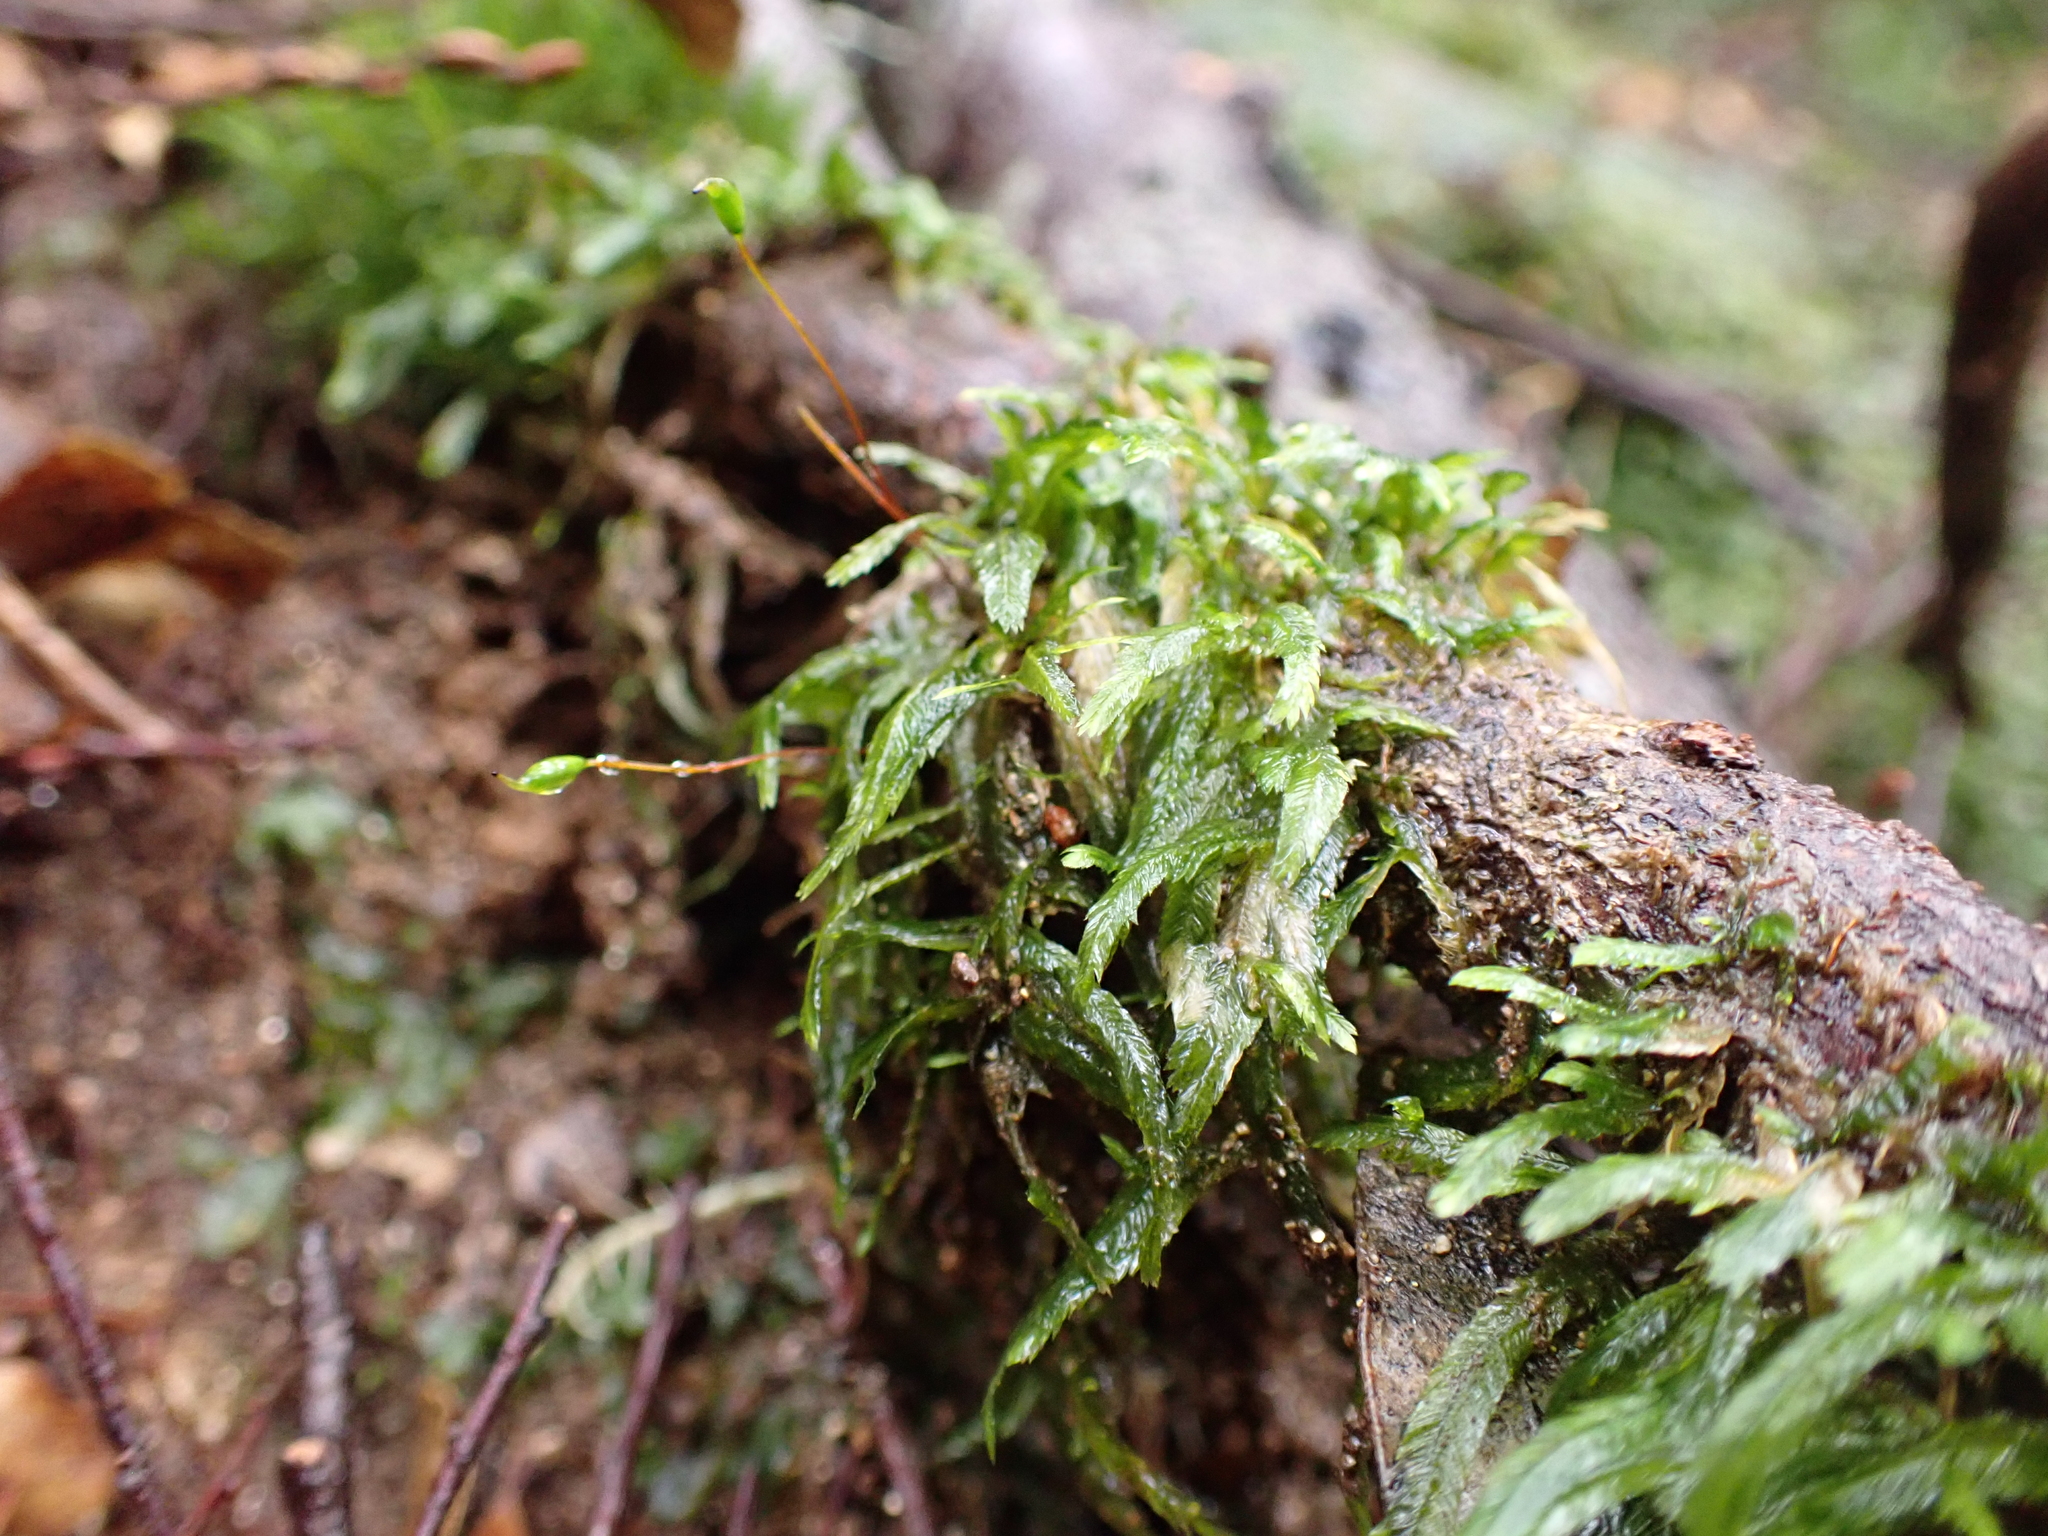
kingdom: Plantae
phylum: Bryophyta
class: Bryopsida
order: Hypnales
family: Catagoniaceae
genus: Catagonium
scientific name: Catagonium nitens
